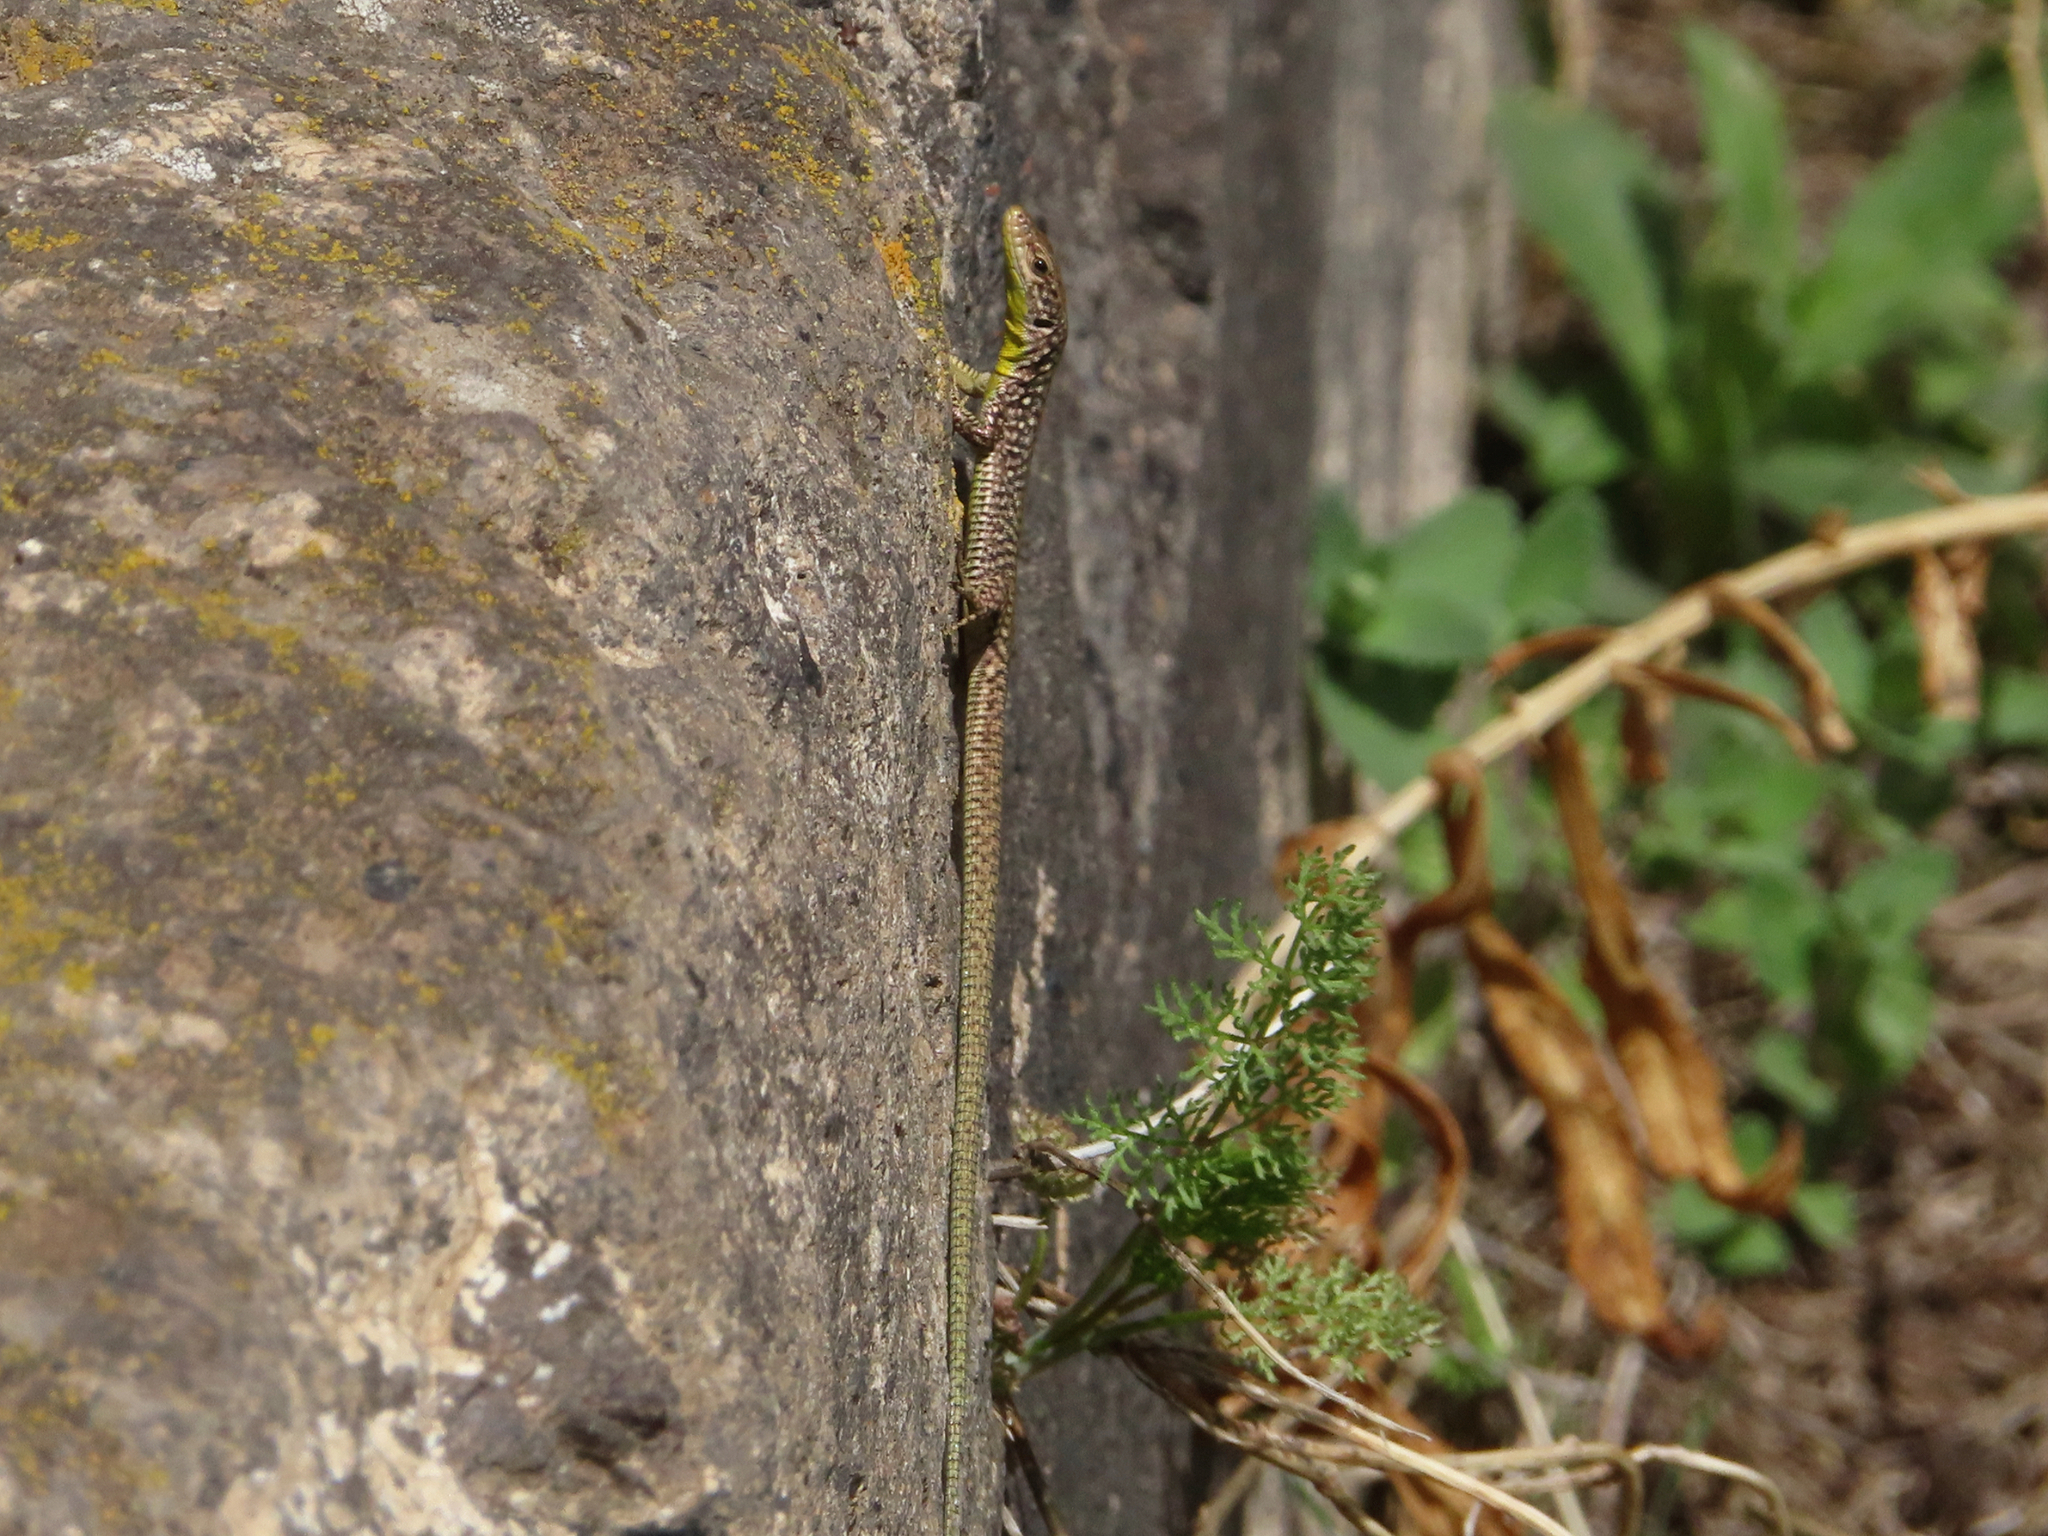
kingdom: Animalia
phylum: Chordata
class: Squamata
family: Lacertidae
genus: Darevskia
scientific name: Darevskia
